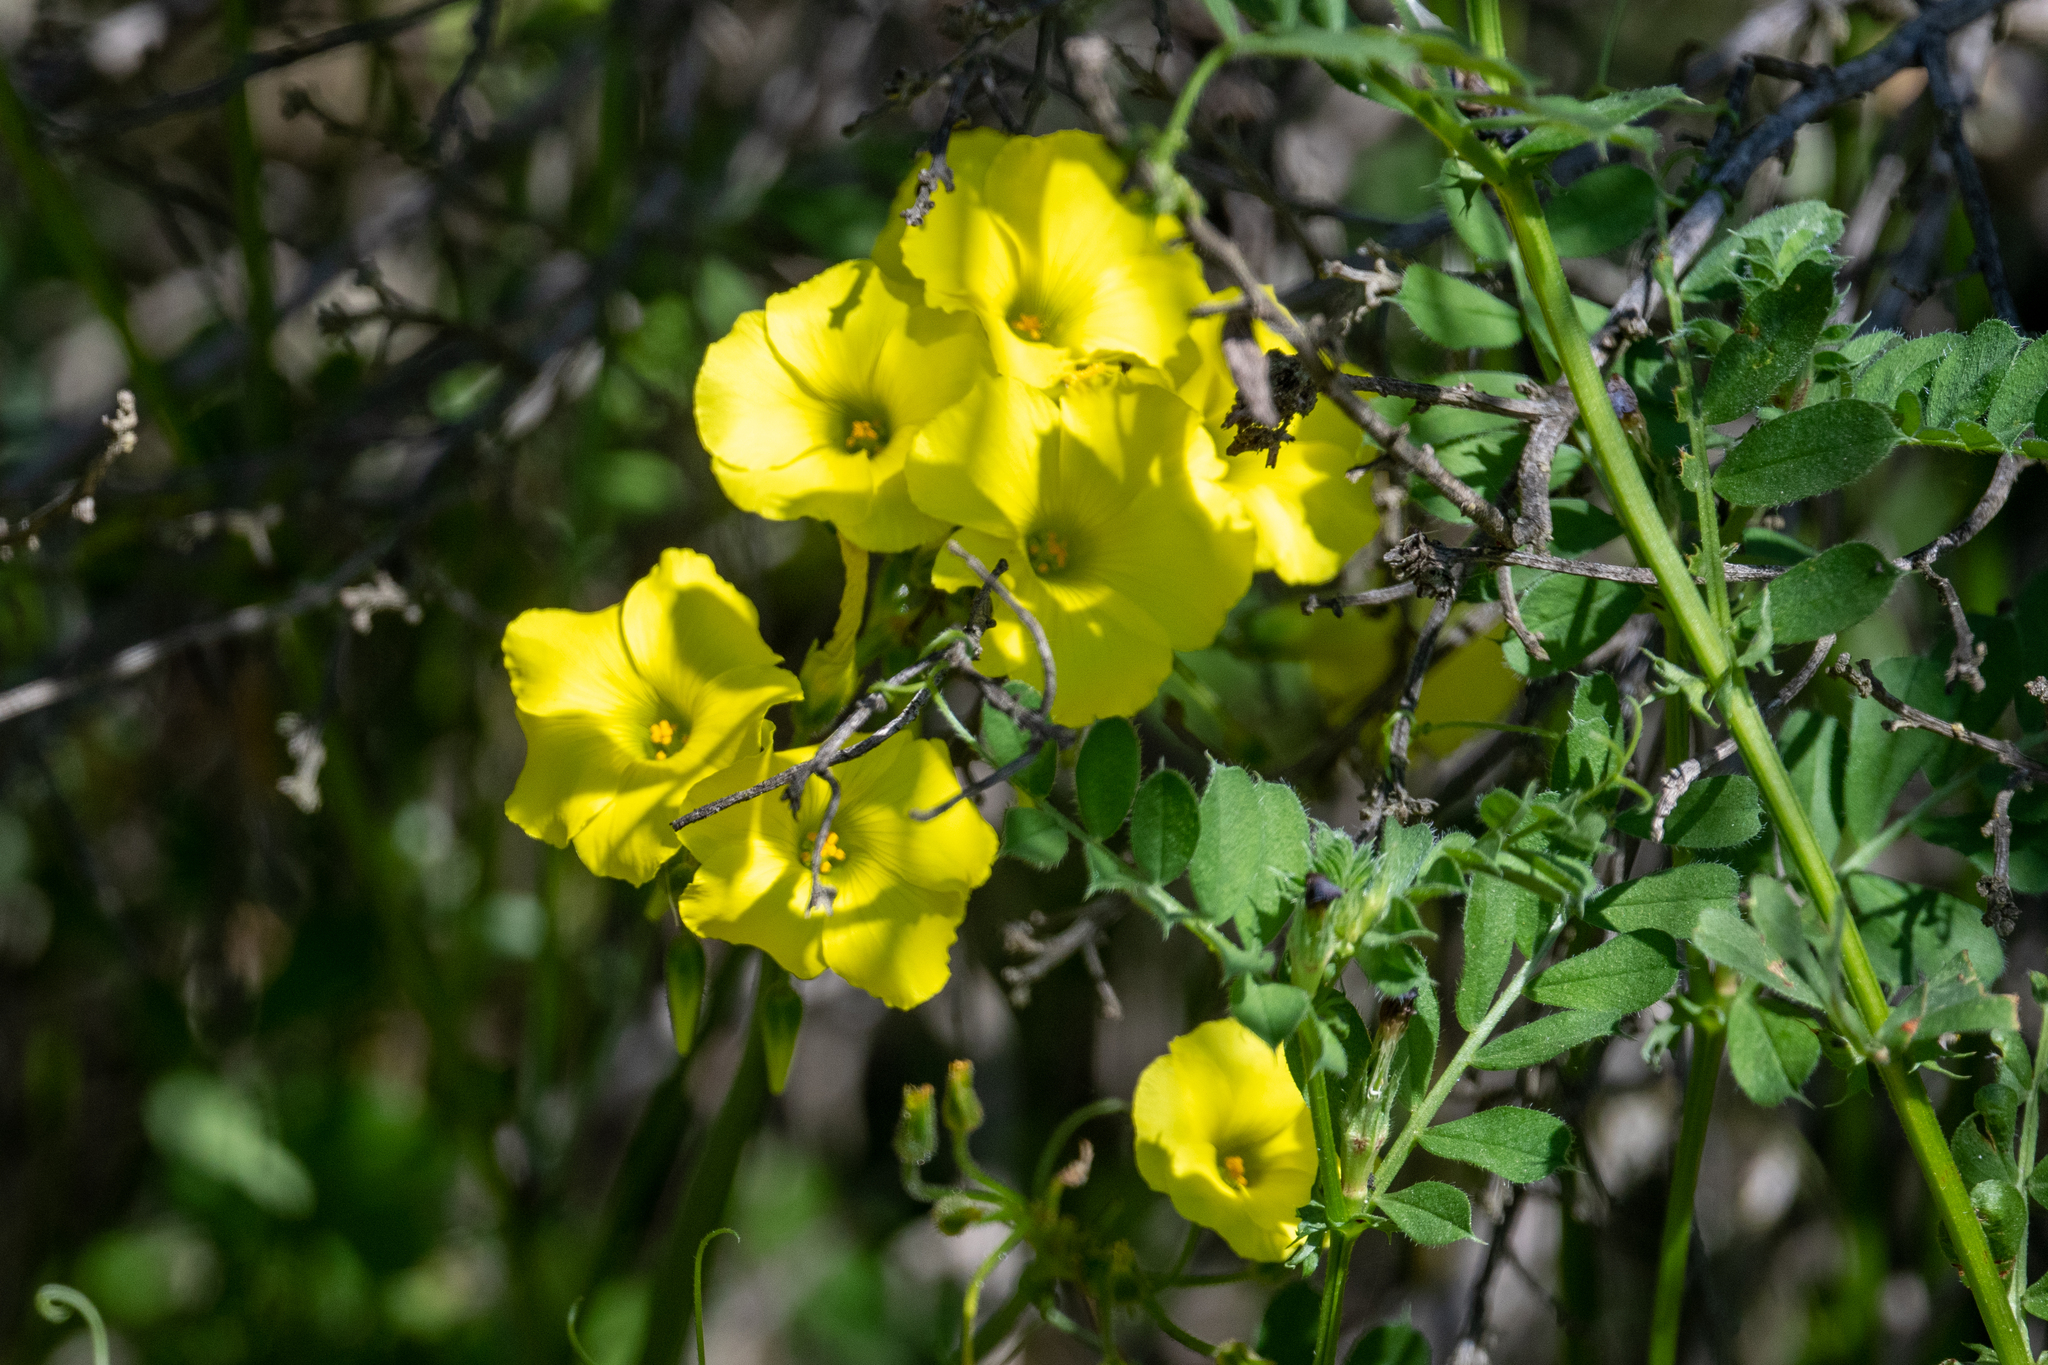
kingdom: Plantae
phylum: Tracheophyta
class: Magnoliopsida
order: Oxalidales
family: Oxalidaceae
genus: Oxalis
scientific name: Oxalis pes-caprae
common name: Bermuda-buttercup
